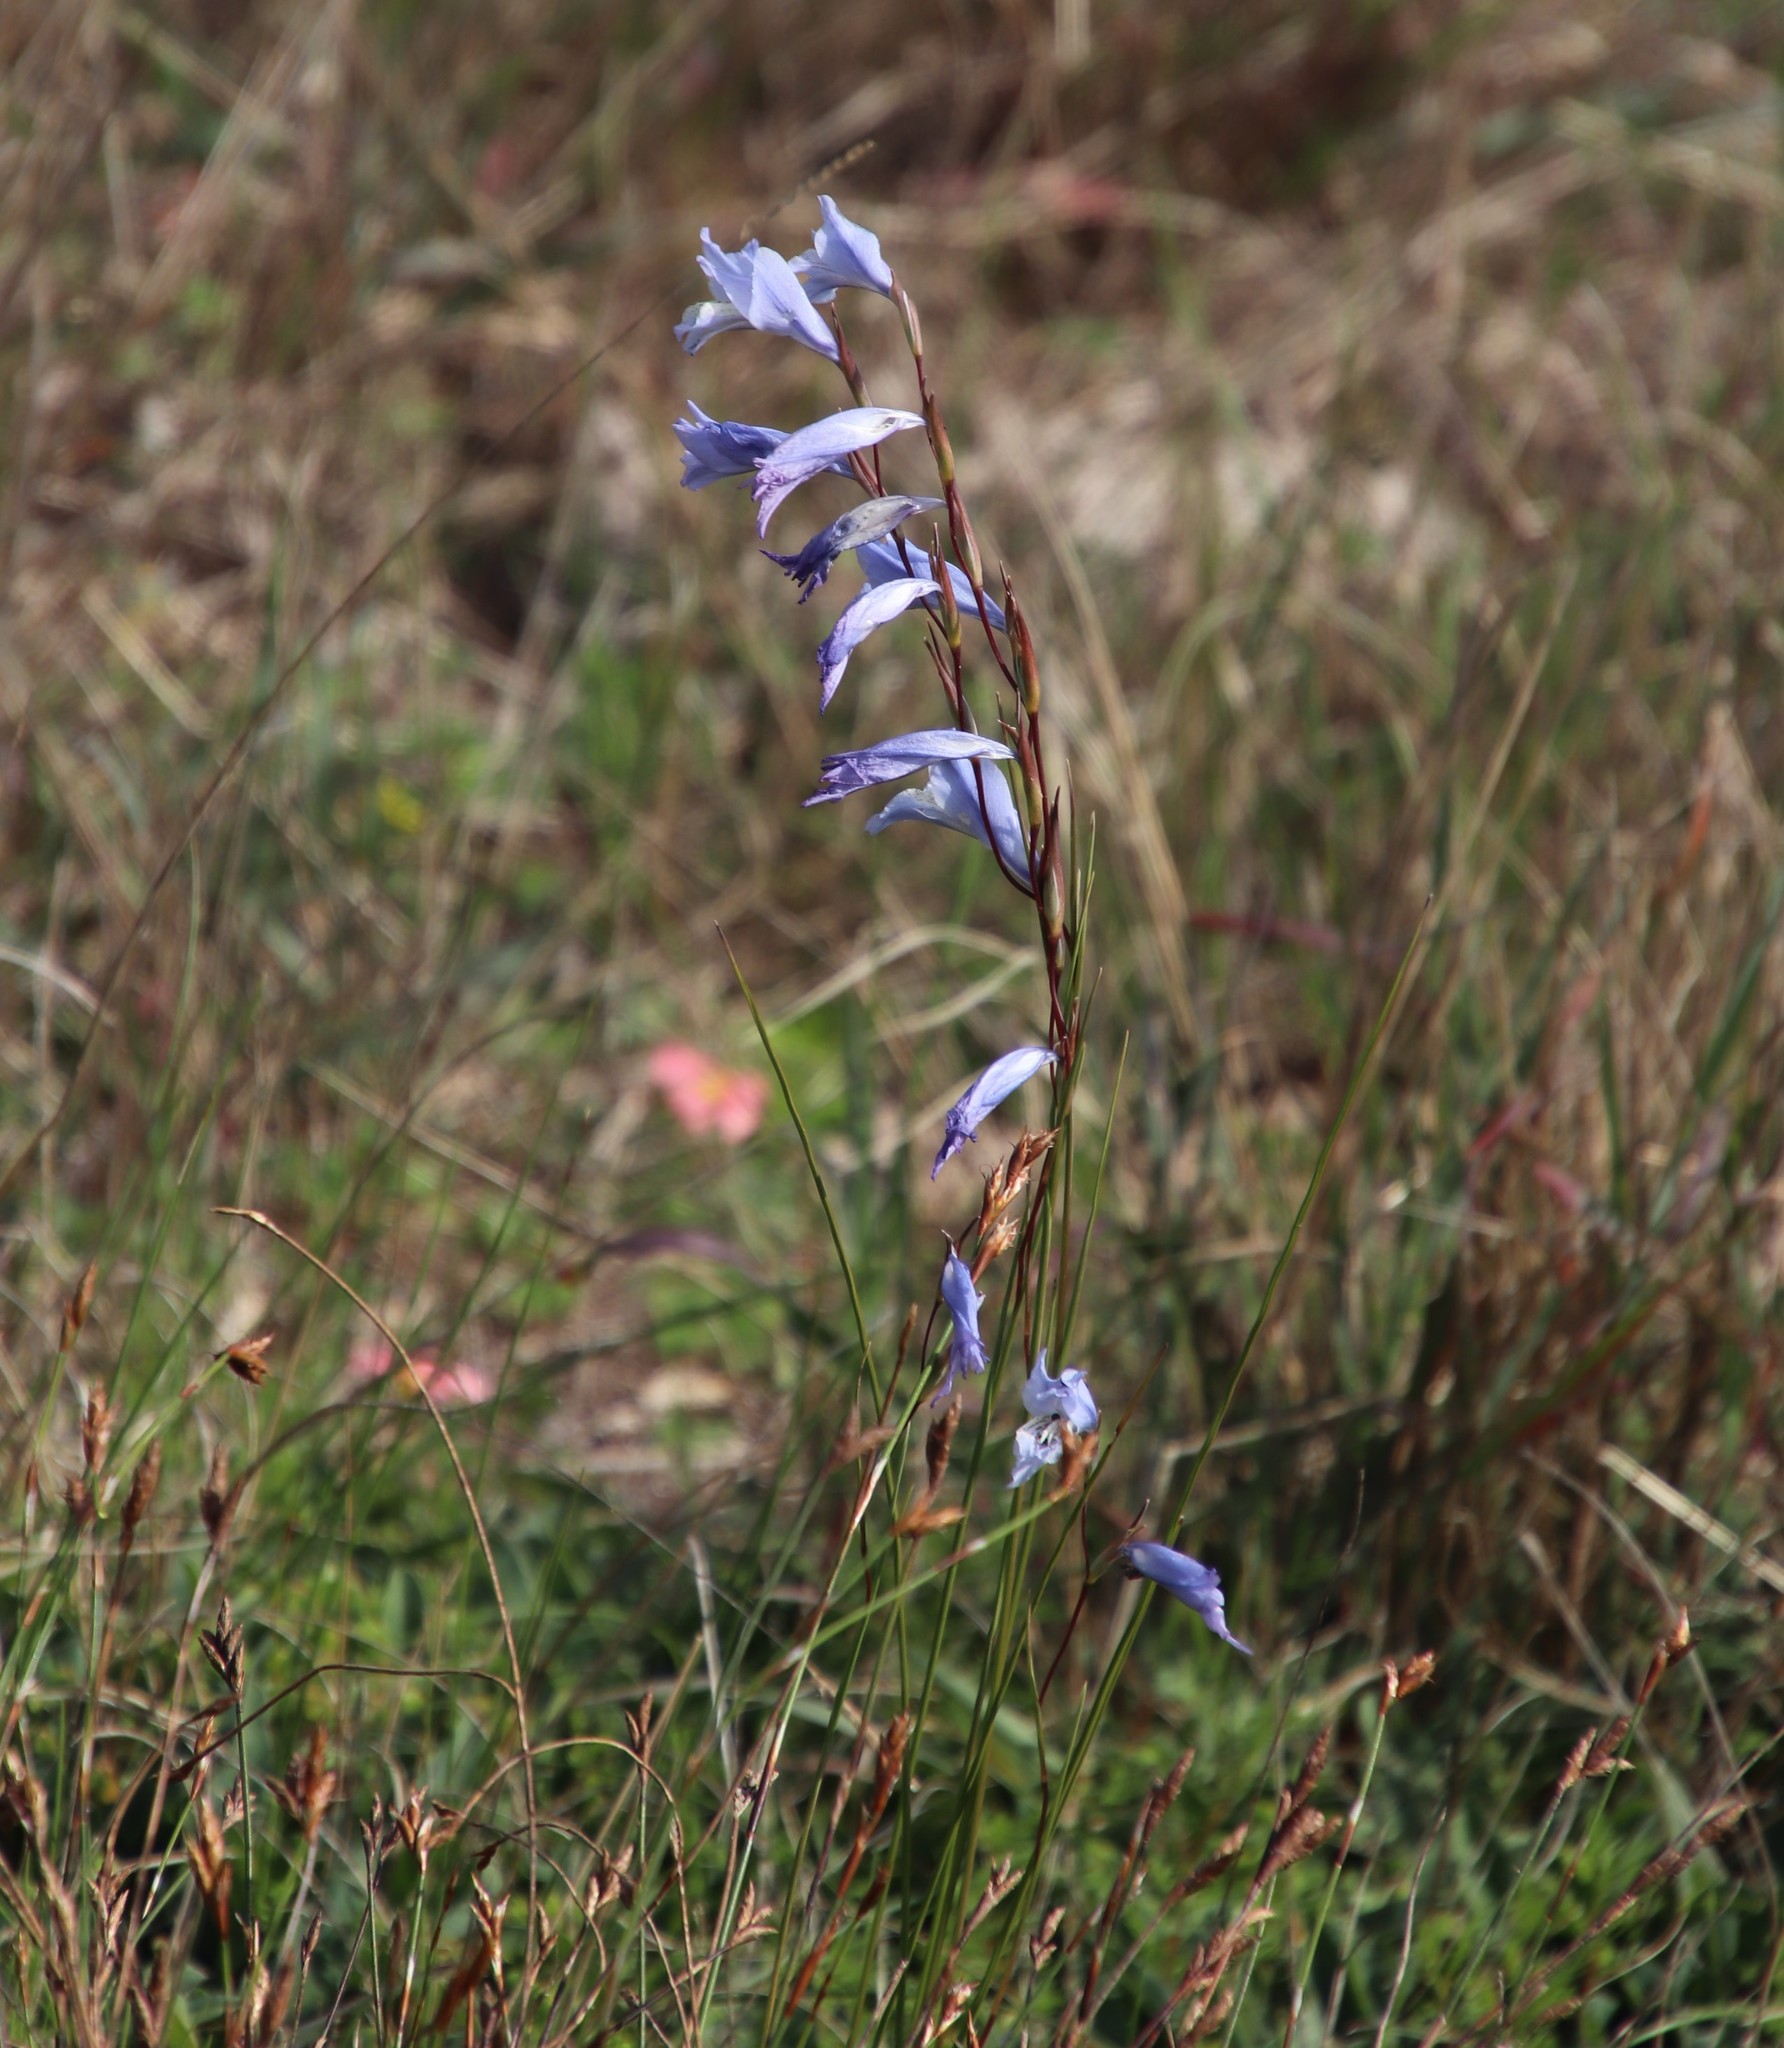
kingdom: Plantae
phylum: Tracheophyta
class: Liliopsida
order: Asparagales
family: Iridaceae
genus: Gladiolus
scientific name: Gladiolus gracilis
